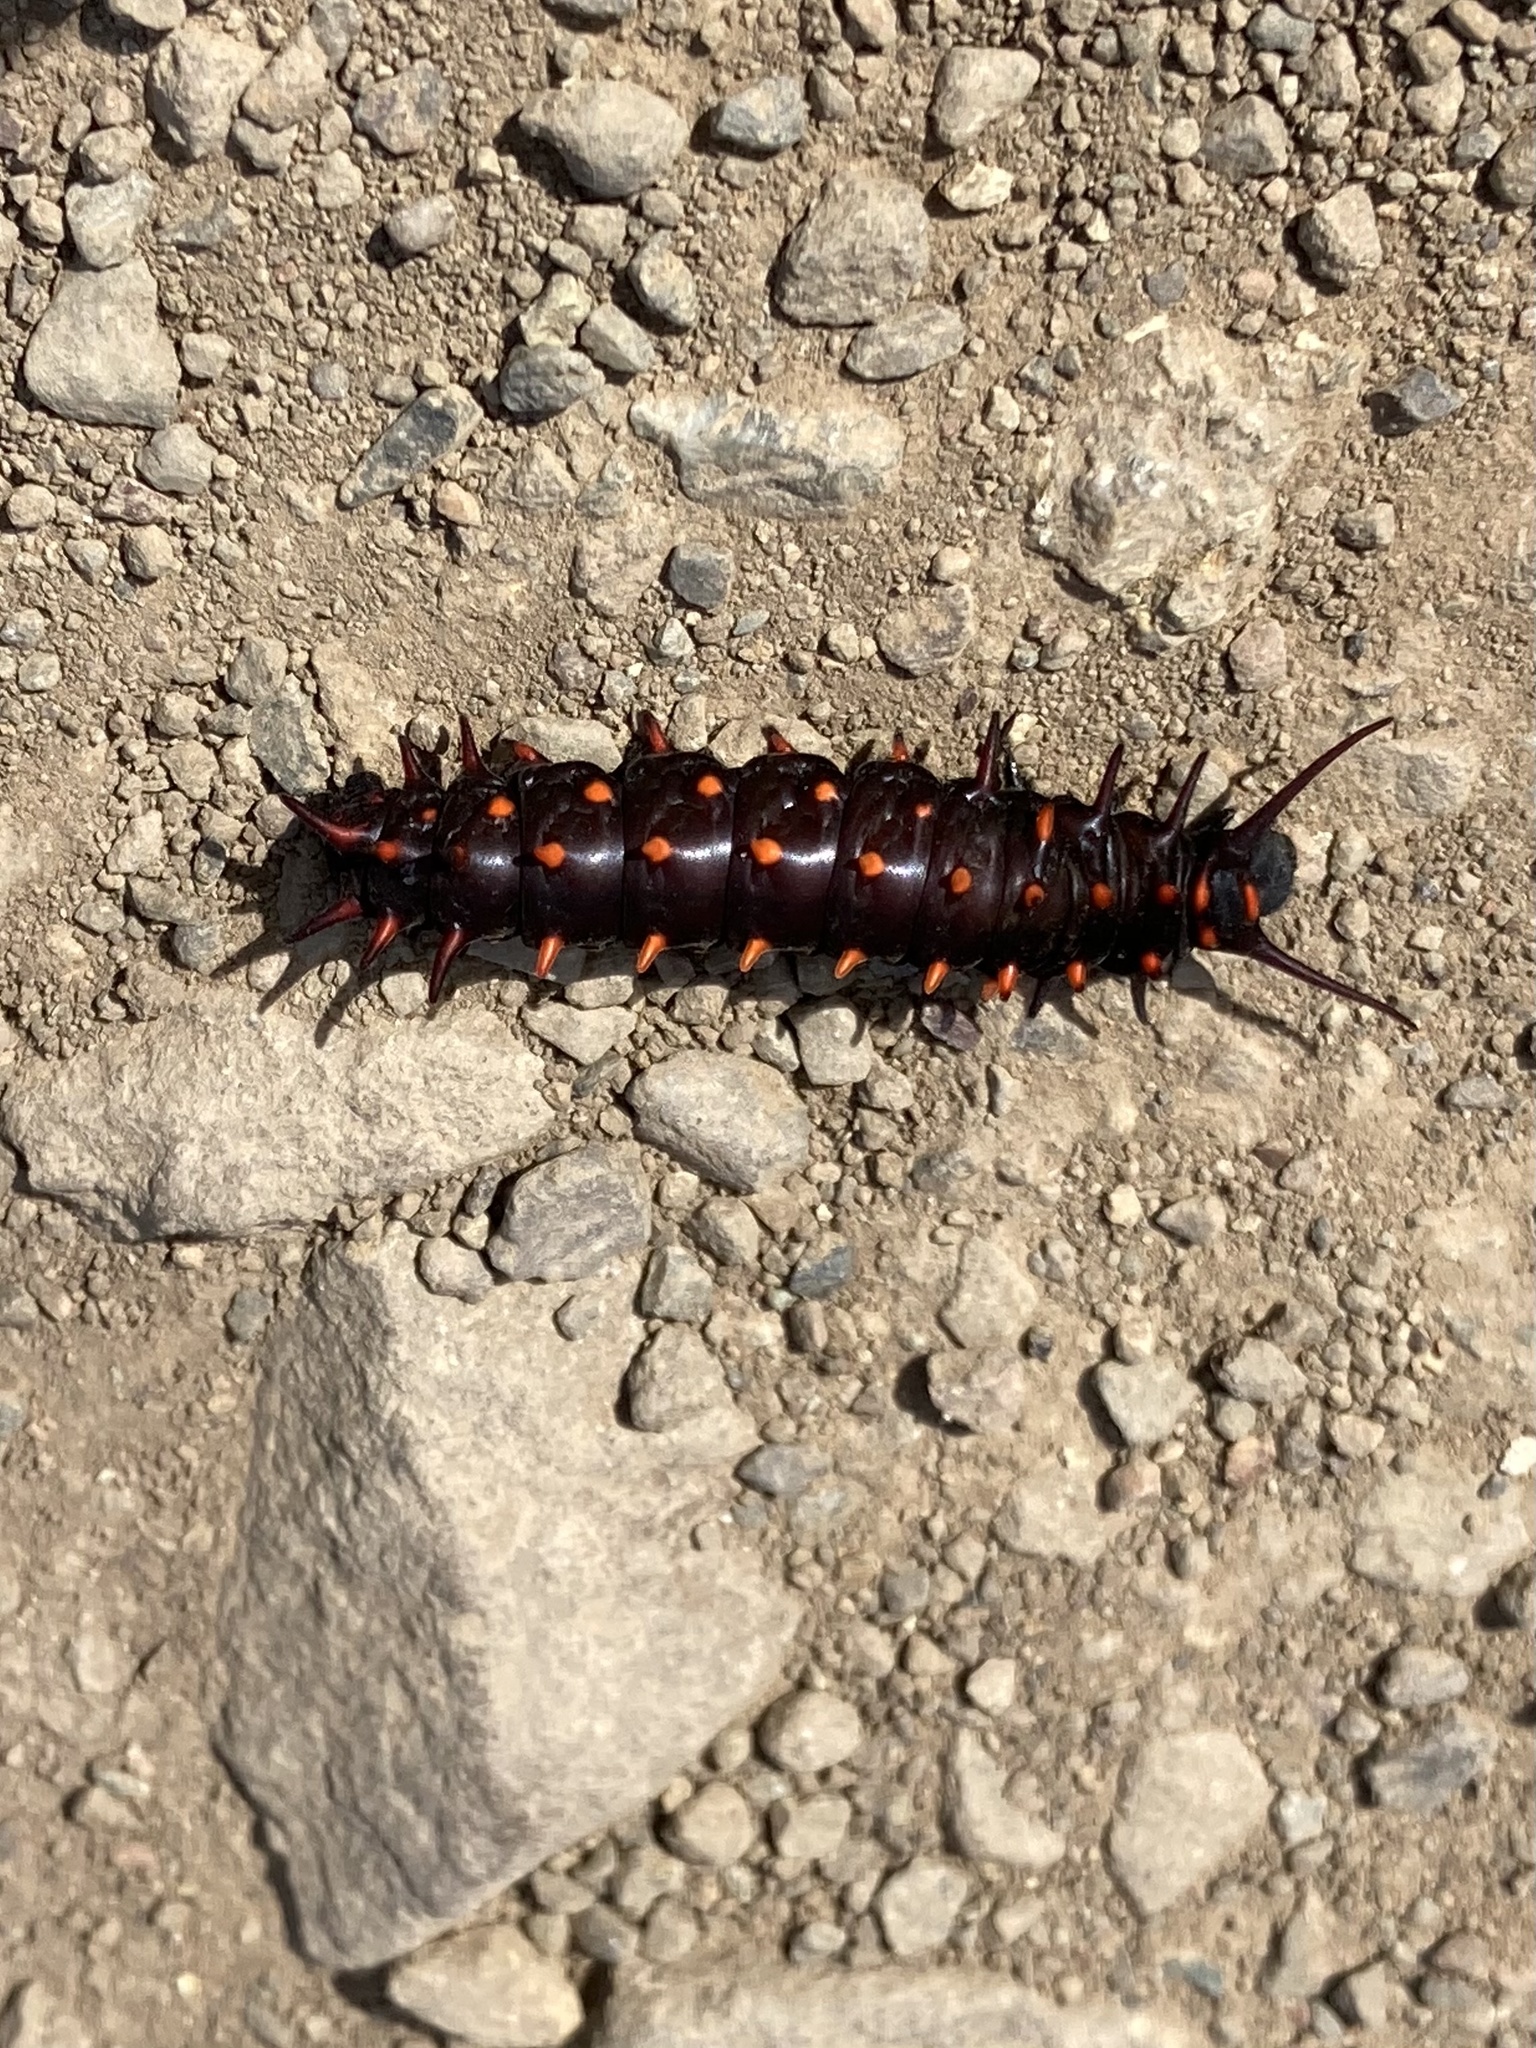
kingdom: Animalia
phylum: Arthropoda
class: Insecta
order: Lepidoptera
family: Papilionidae
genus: Battus
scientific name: Battus philenor
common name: Pipevine swallowtail
